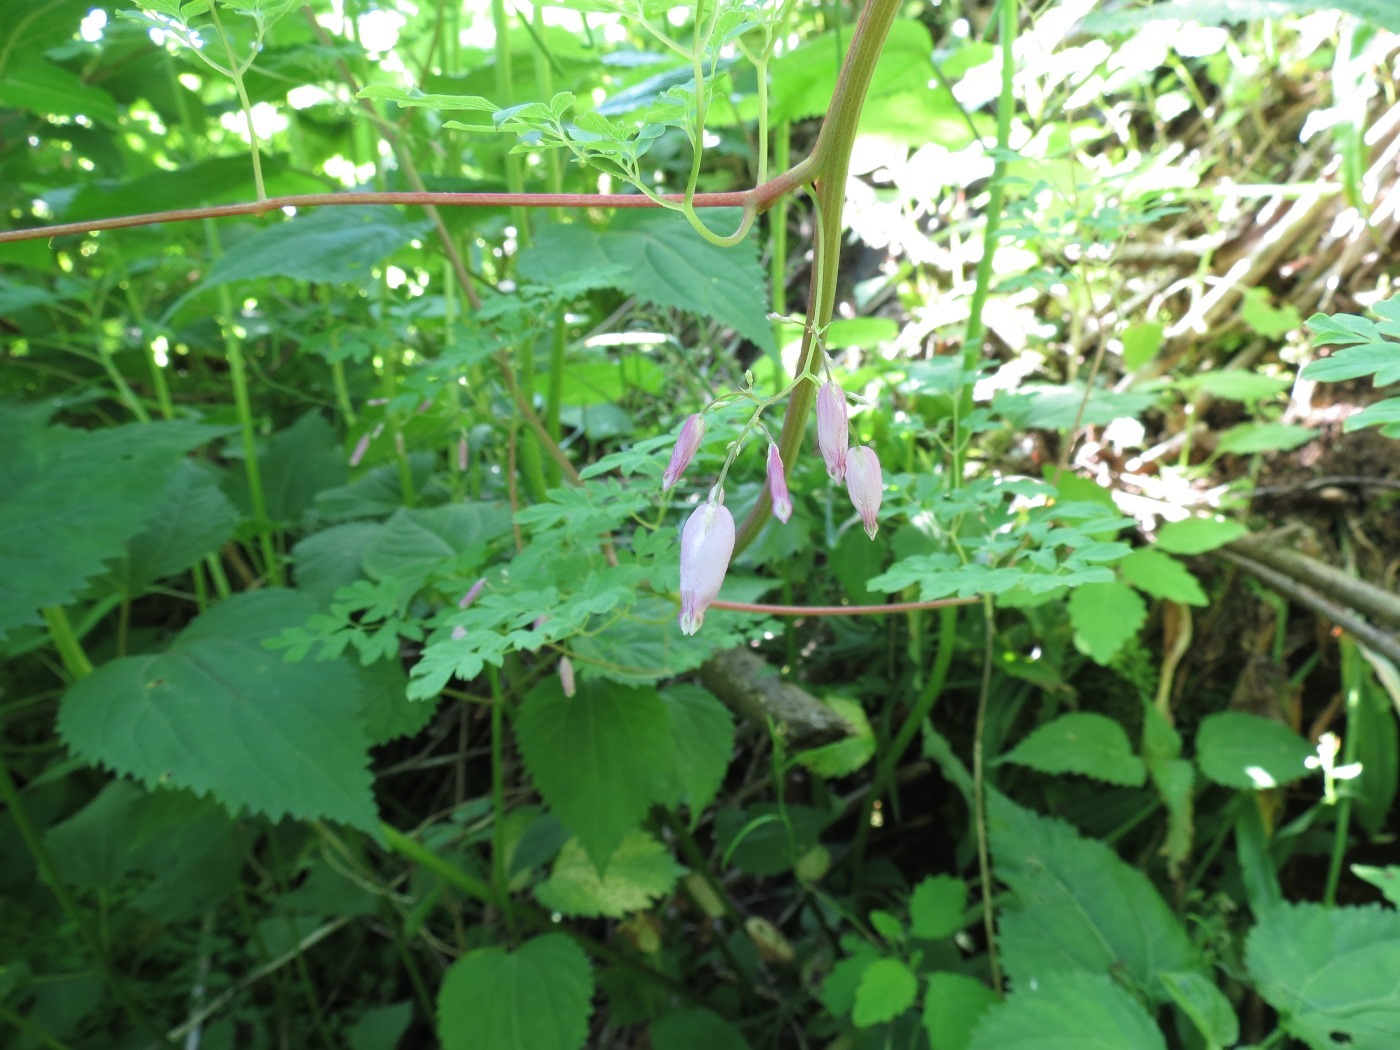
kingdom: Plantae
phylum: Tracheophyta
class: Magnoliopsida
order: Ranunculales
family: Papaveraceae
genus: Adlumia
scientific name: Adlumia fungosa
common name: Mountain-fringe
